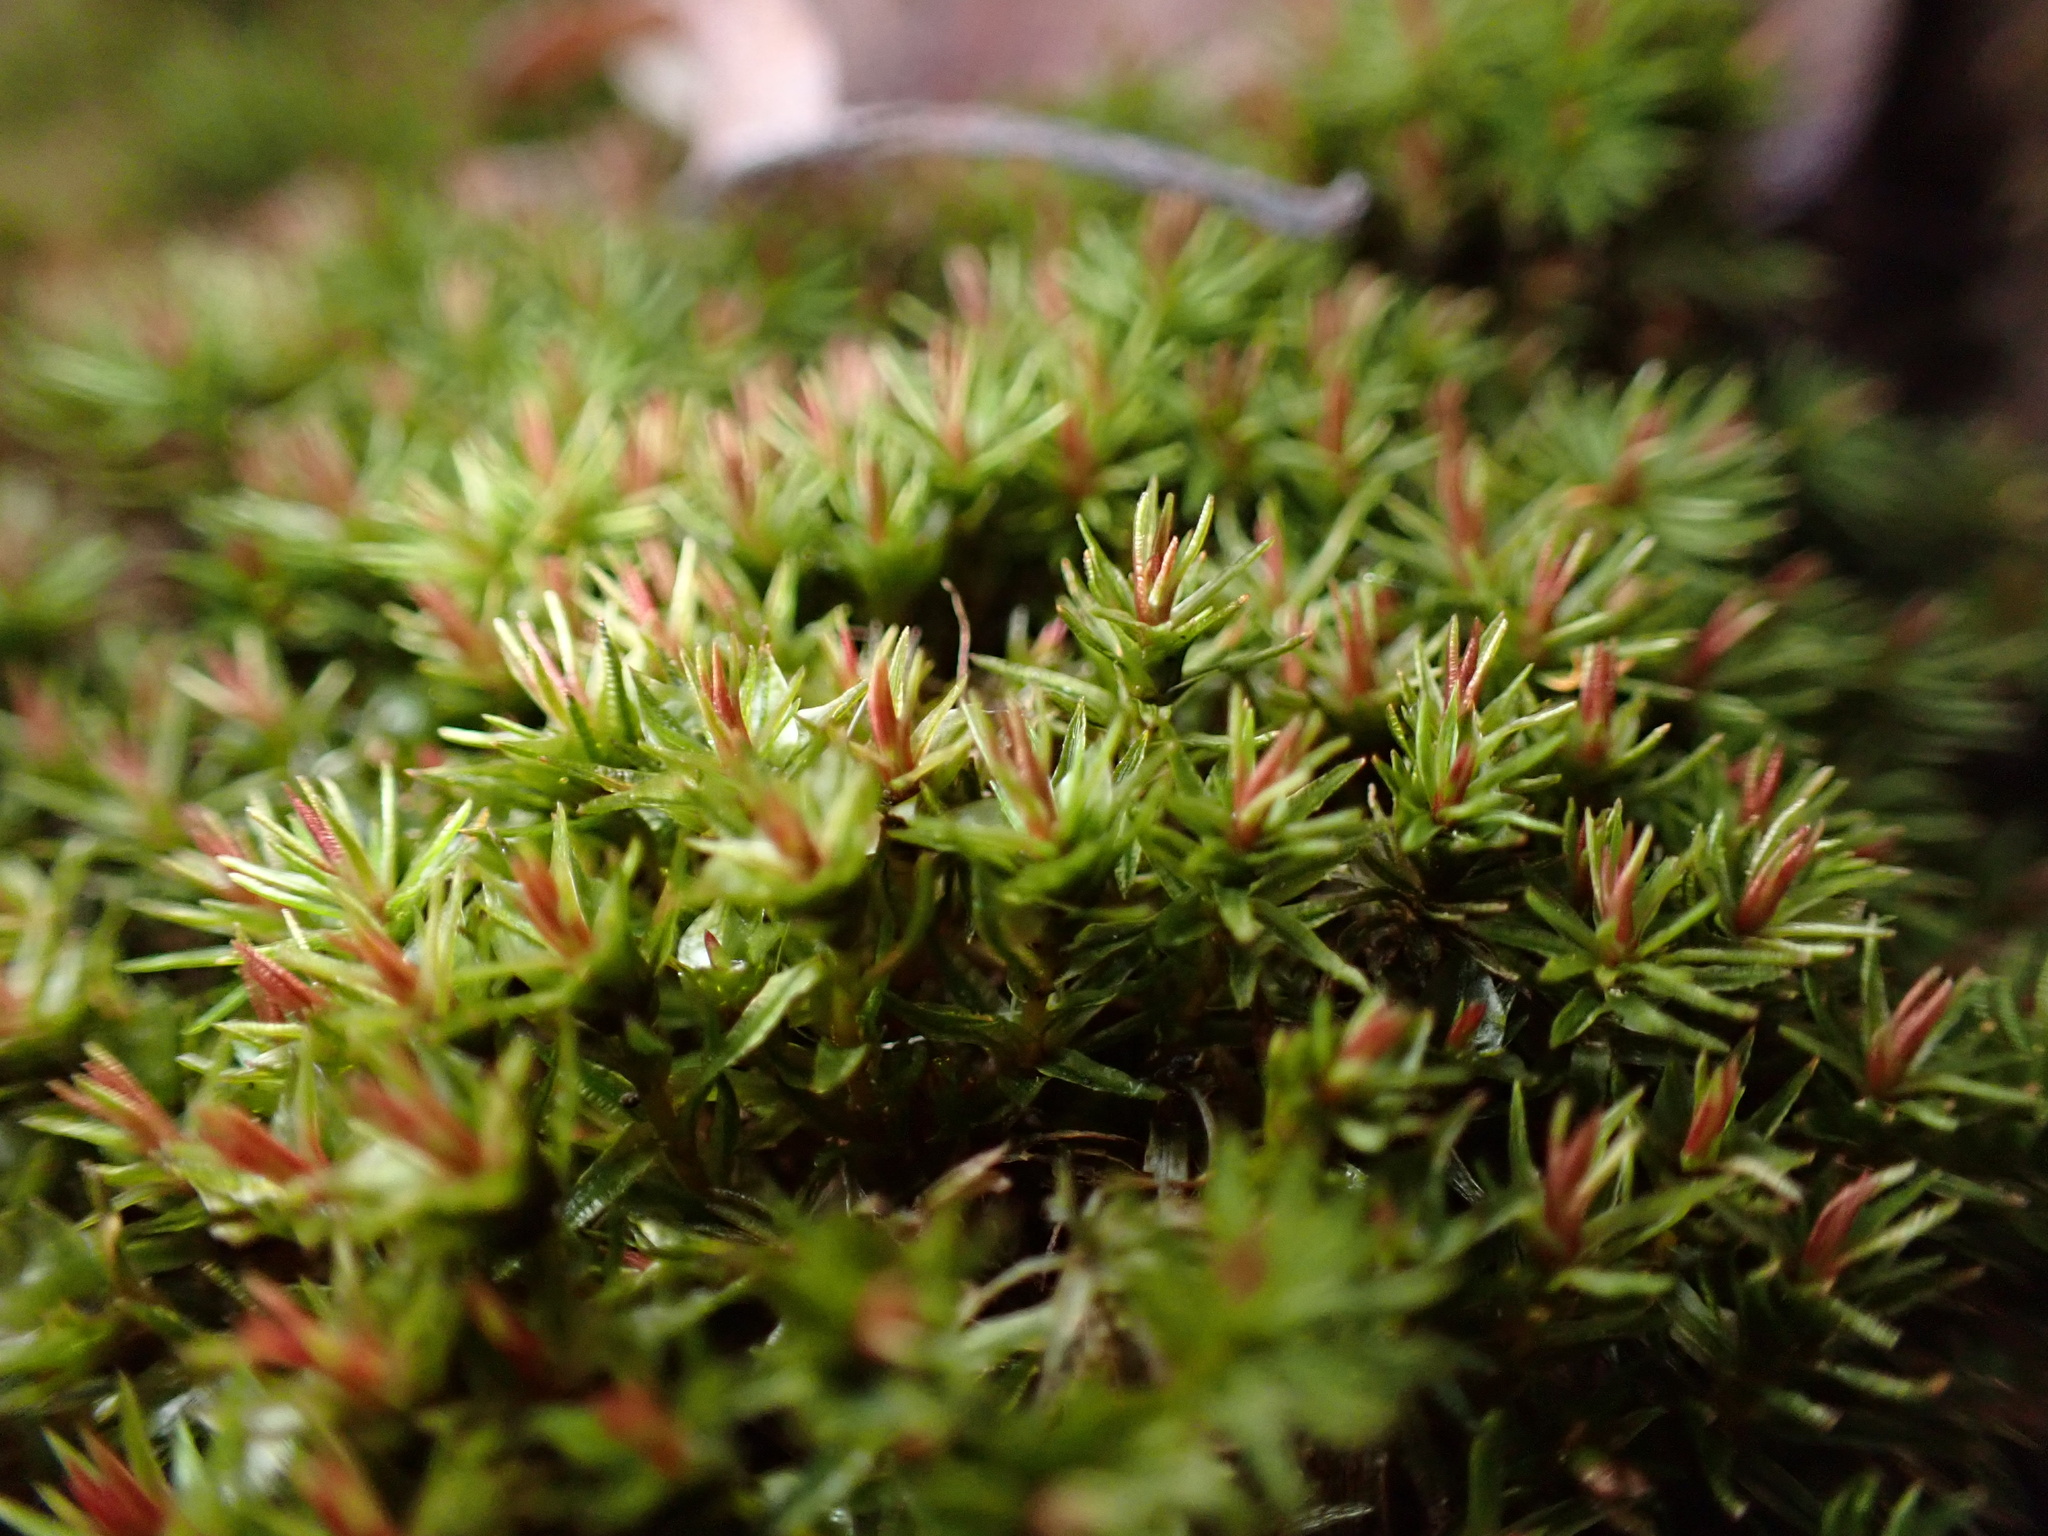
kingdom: Plantae
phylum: Bryophyta
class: Polytrichopsida
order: Polytrichales
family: Polytrichaceae
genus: Atrichum
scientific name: Atrichum angustatum
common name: Lesser smoothcap
